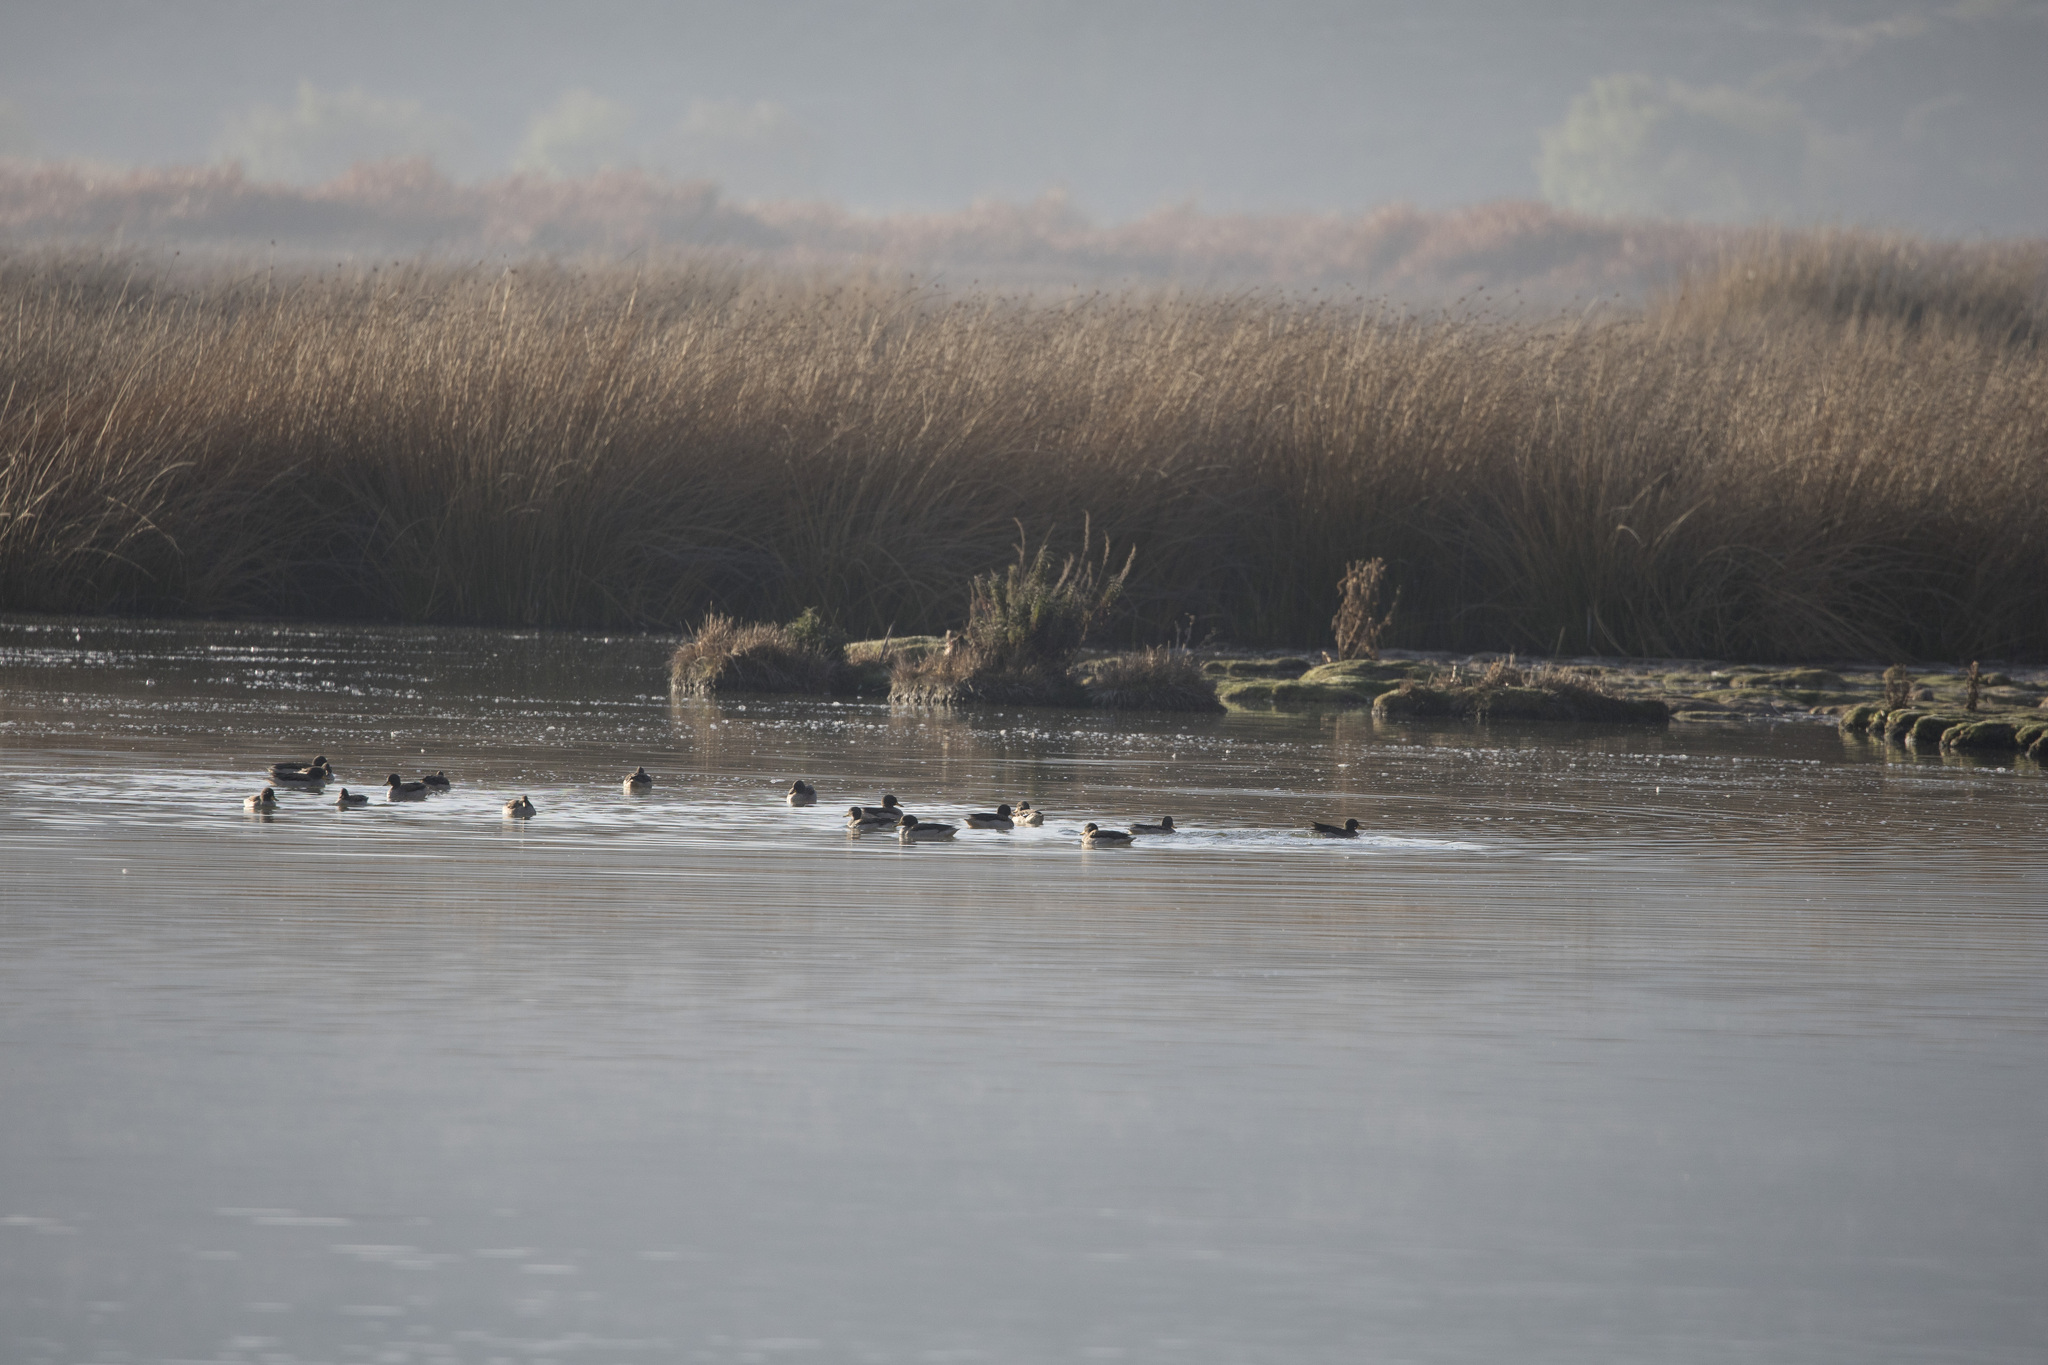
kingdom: Animalia
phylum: Chordata
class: Aves
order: Anseriformes
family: Anatidae
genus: Anas
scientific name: Anas flavirostris
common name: Yellow-billed teal
